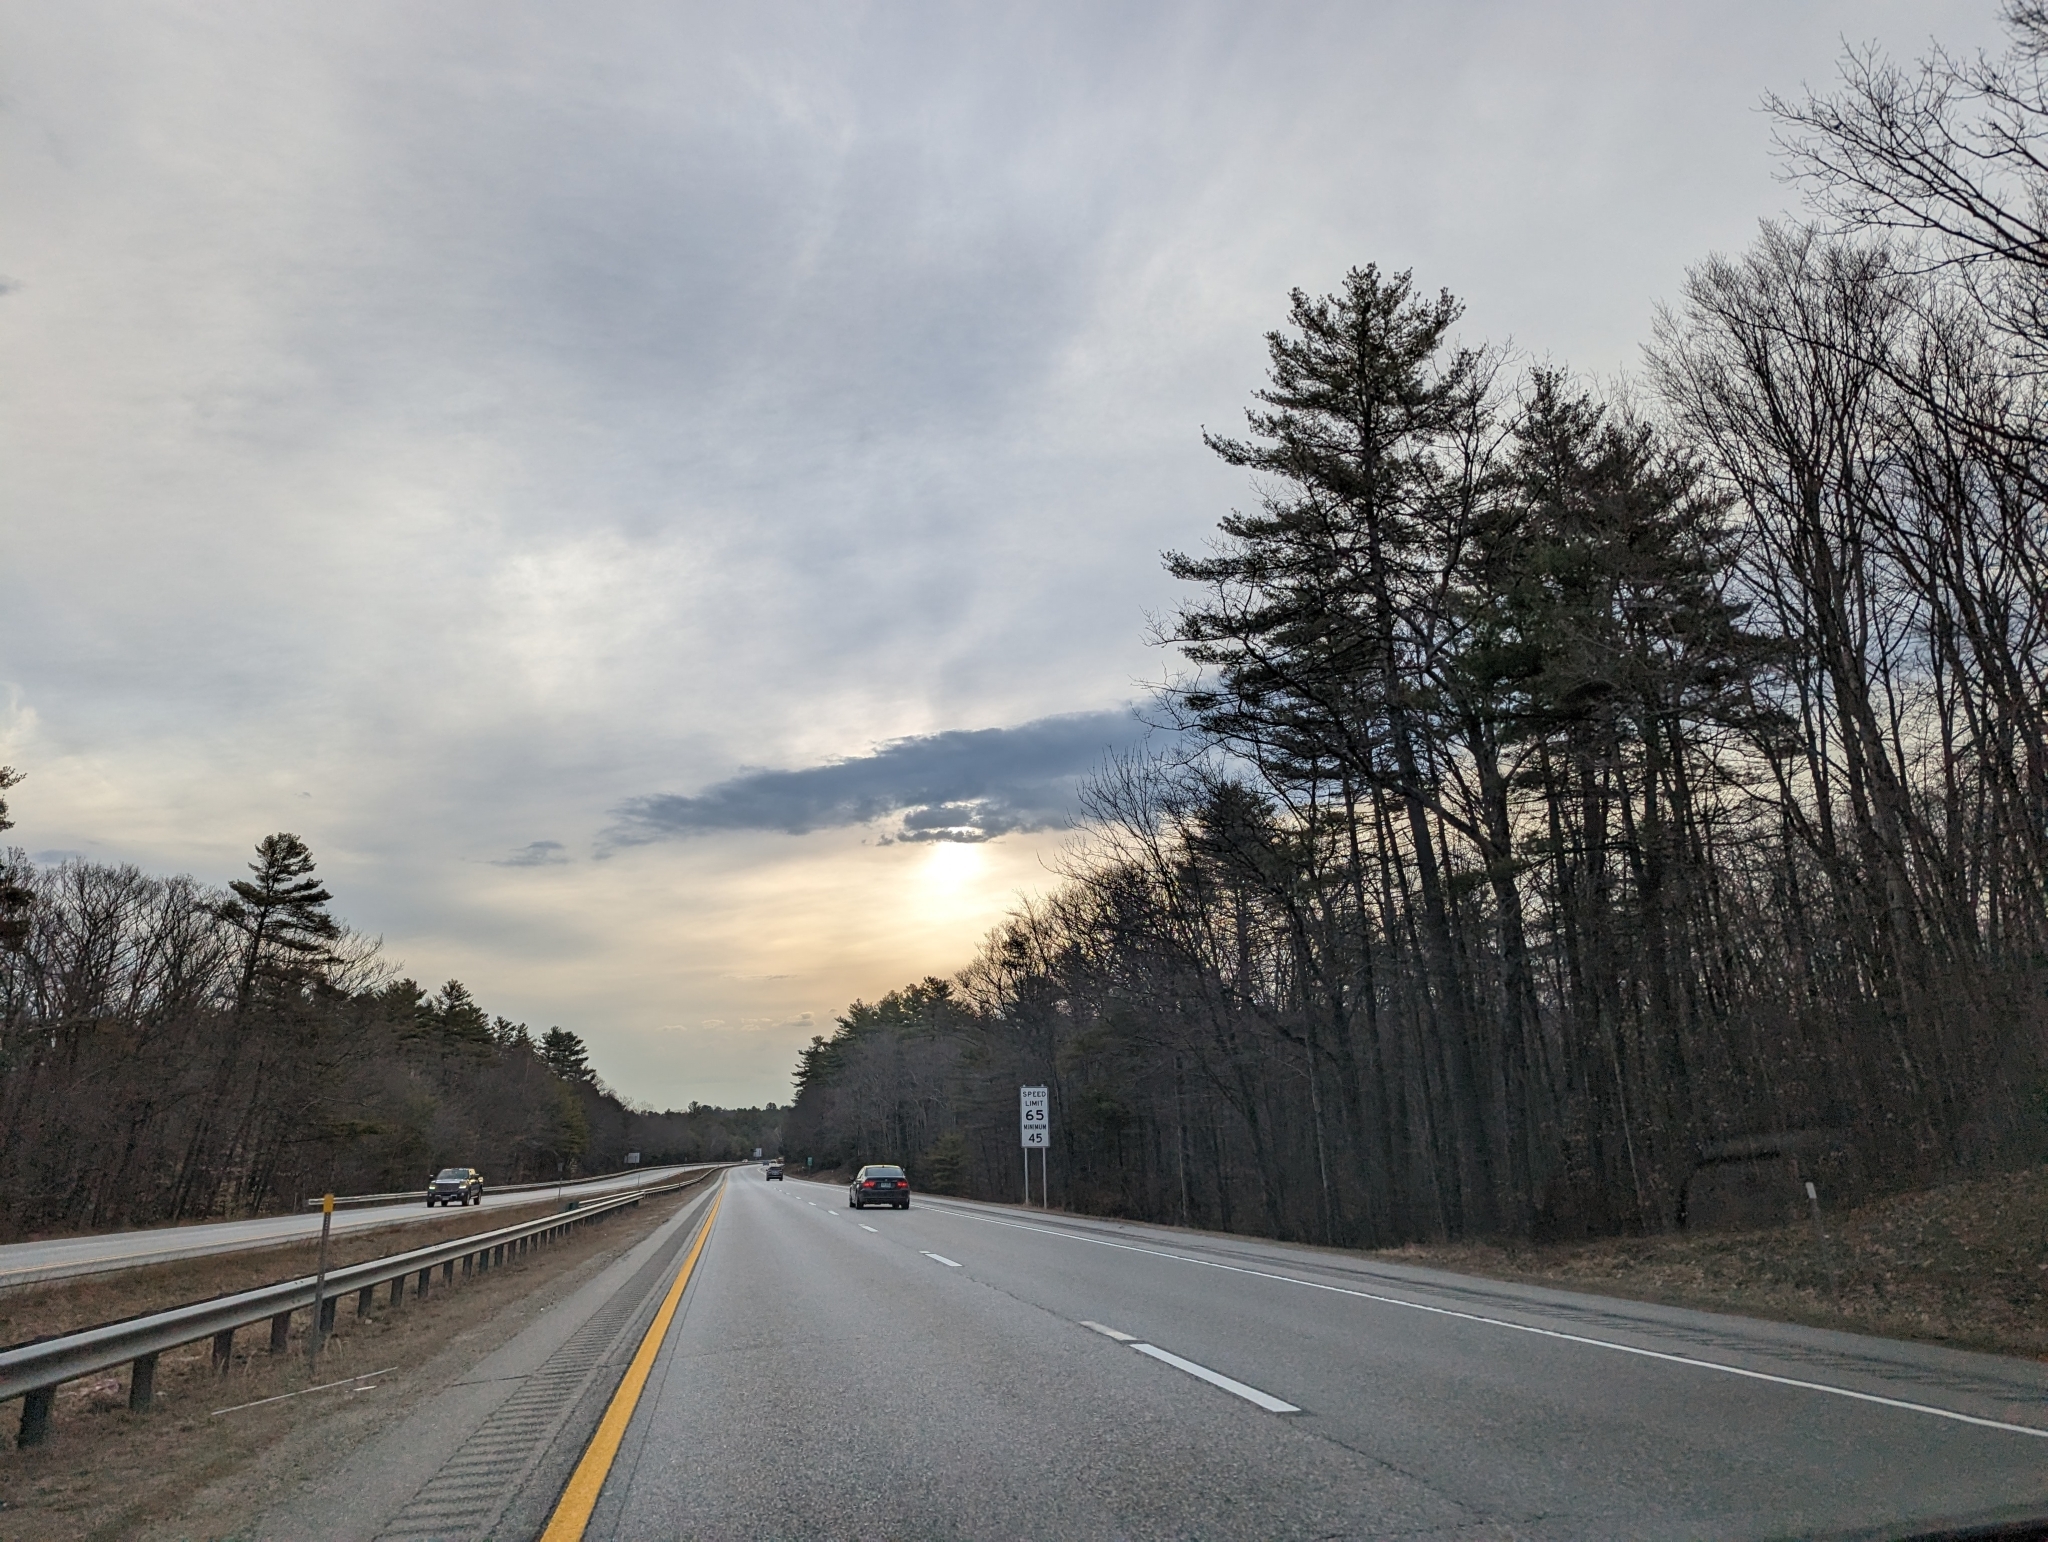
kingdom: Plantae
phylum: Tracheophyta
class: Pinopsida
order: Pinales
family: Pinaceae
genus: Pinus
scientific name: Pinus strobus
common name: Weymouth pine
